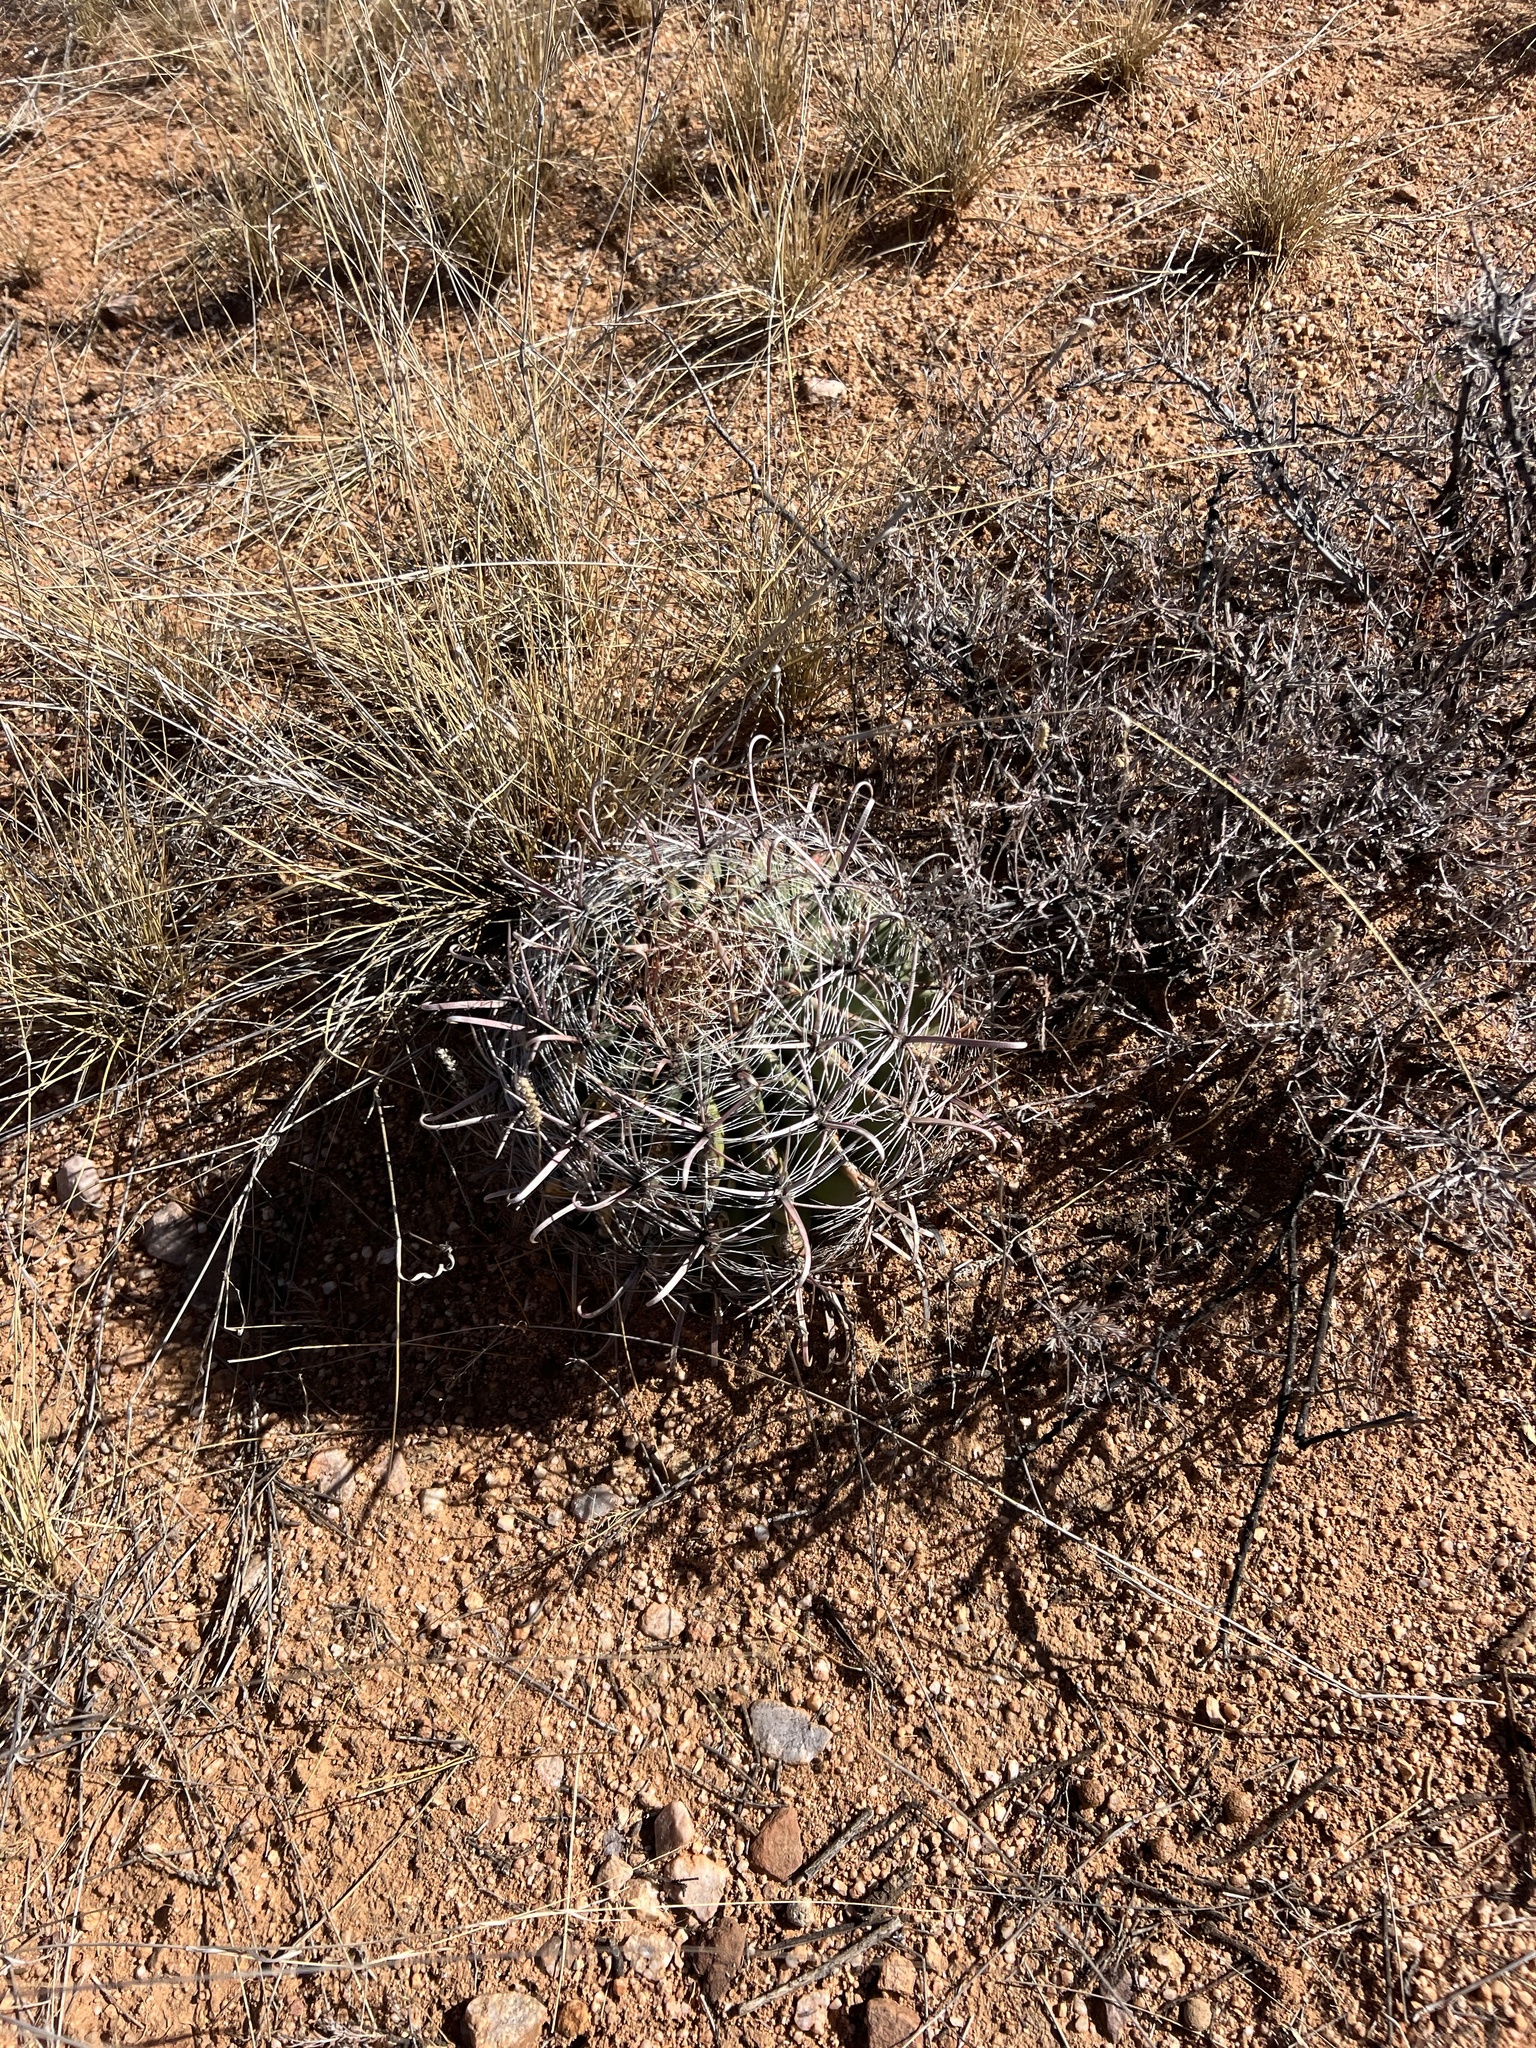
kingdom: Plantae
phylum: Tracheophyta
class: Magnoliopsida
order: Caryophyllales
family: Cactaceae
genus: Ferocactus
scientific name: Ferocactus wislizeni
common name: Candy barrel cactus
